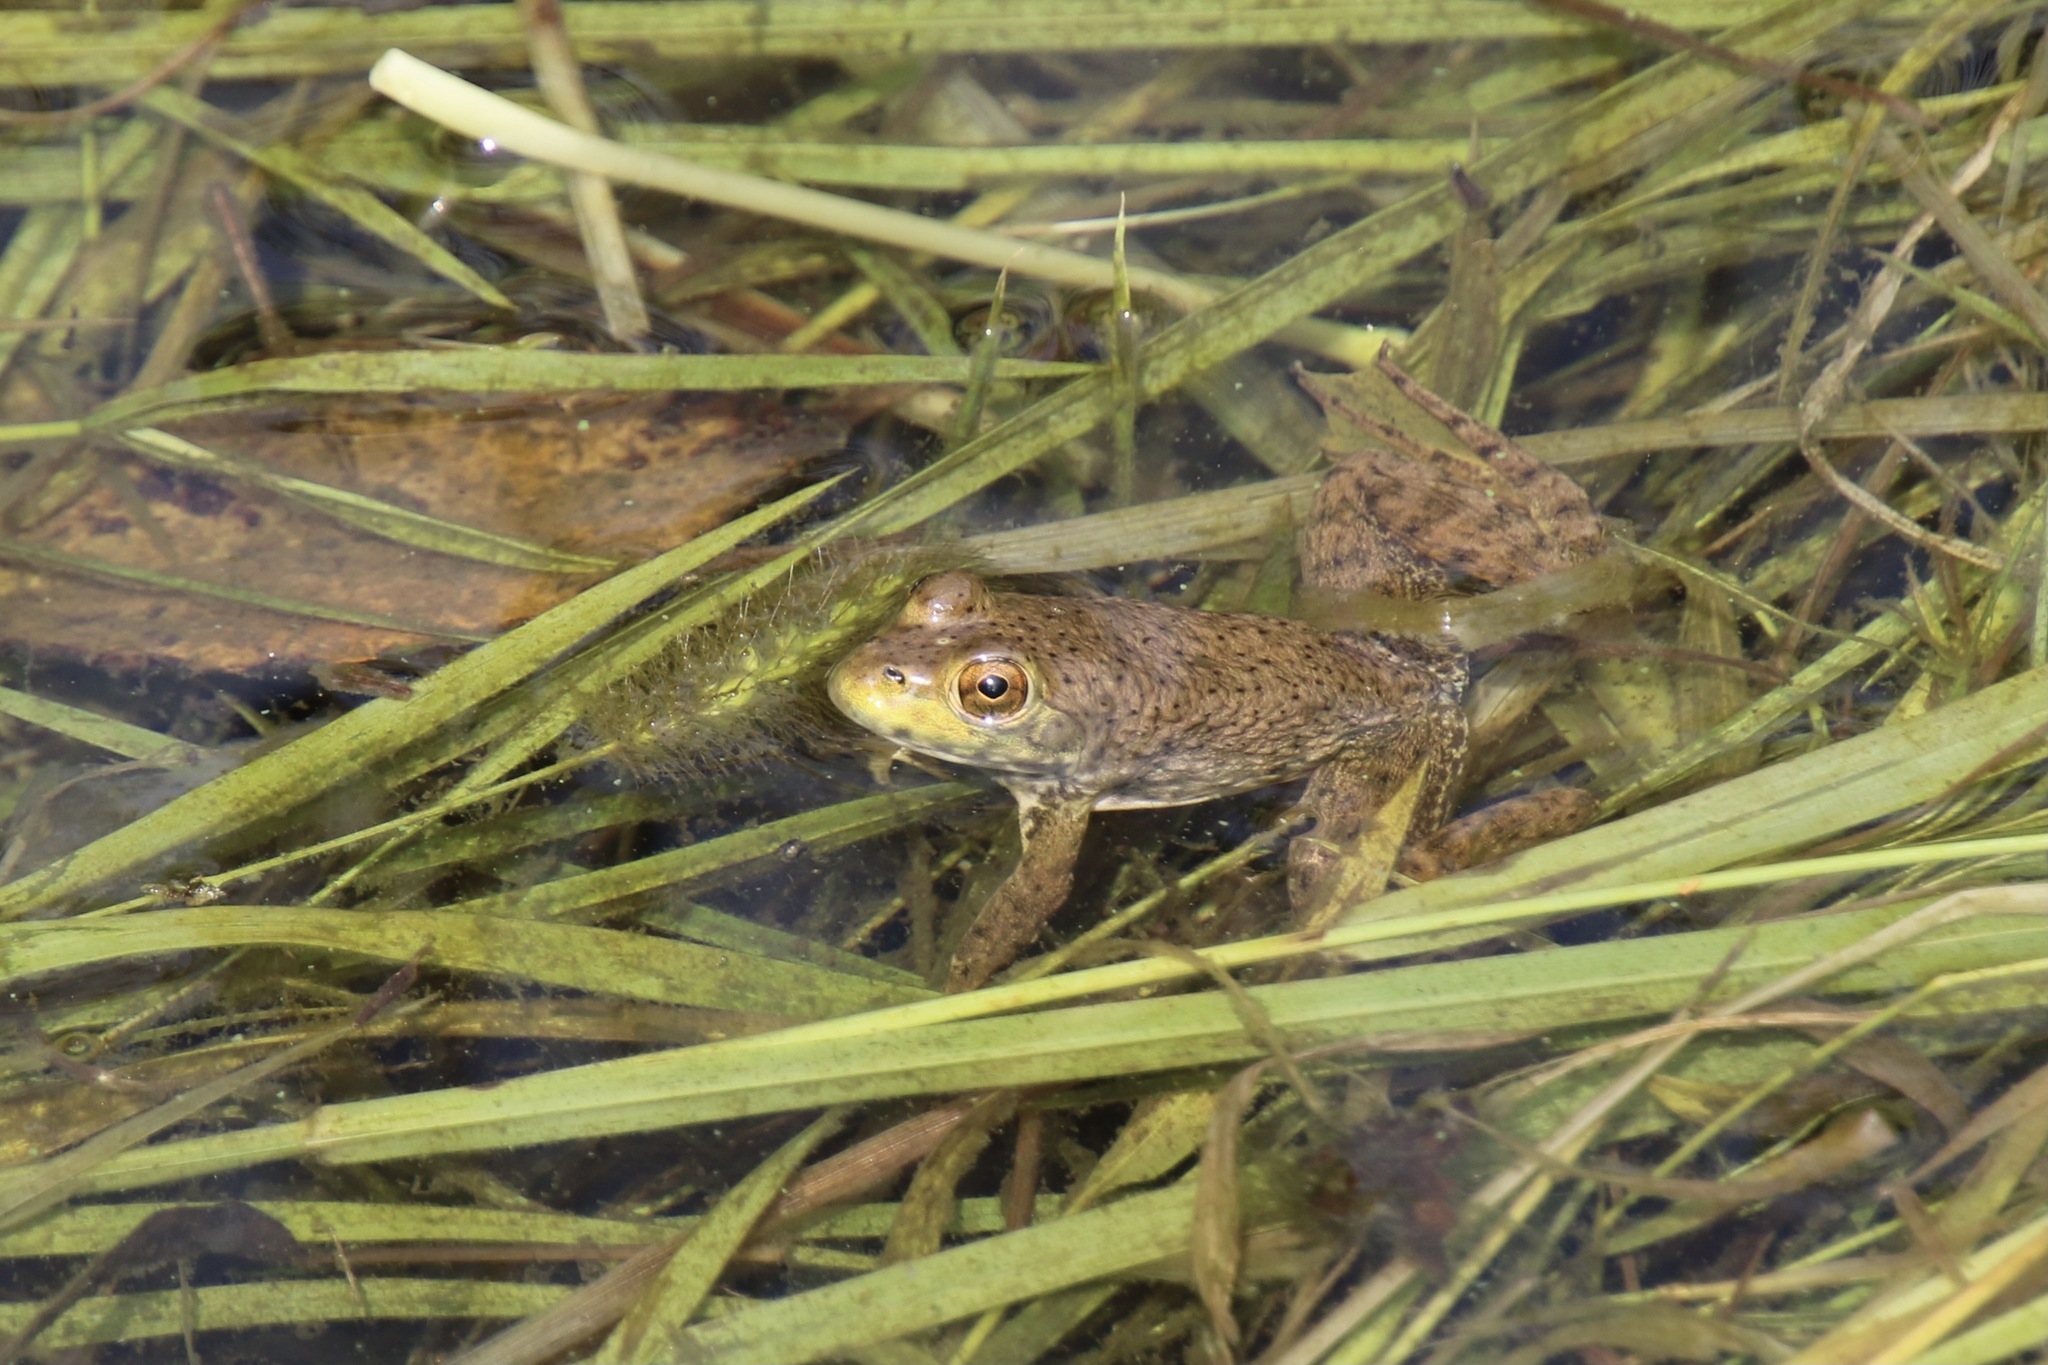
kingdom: Animalia
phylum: Chordata
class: Amphibia
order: Anura
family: Ranidae
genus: Lithobates
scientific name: Lithobates catesbeianus
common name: American bullfrog
